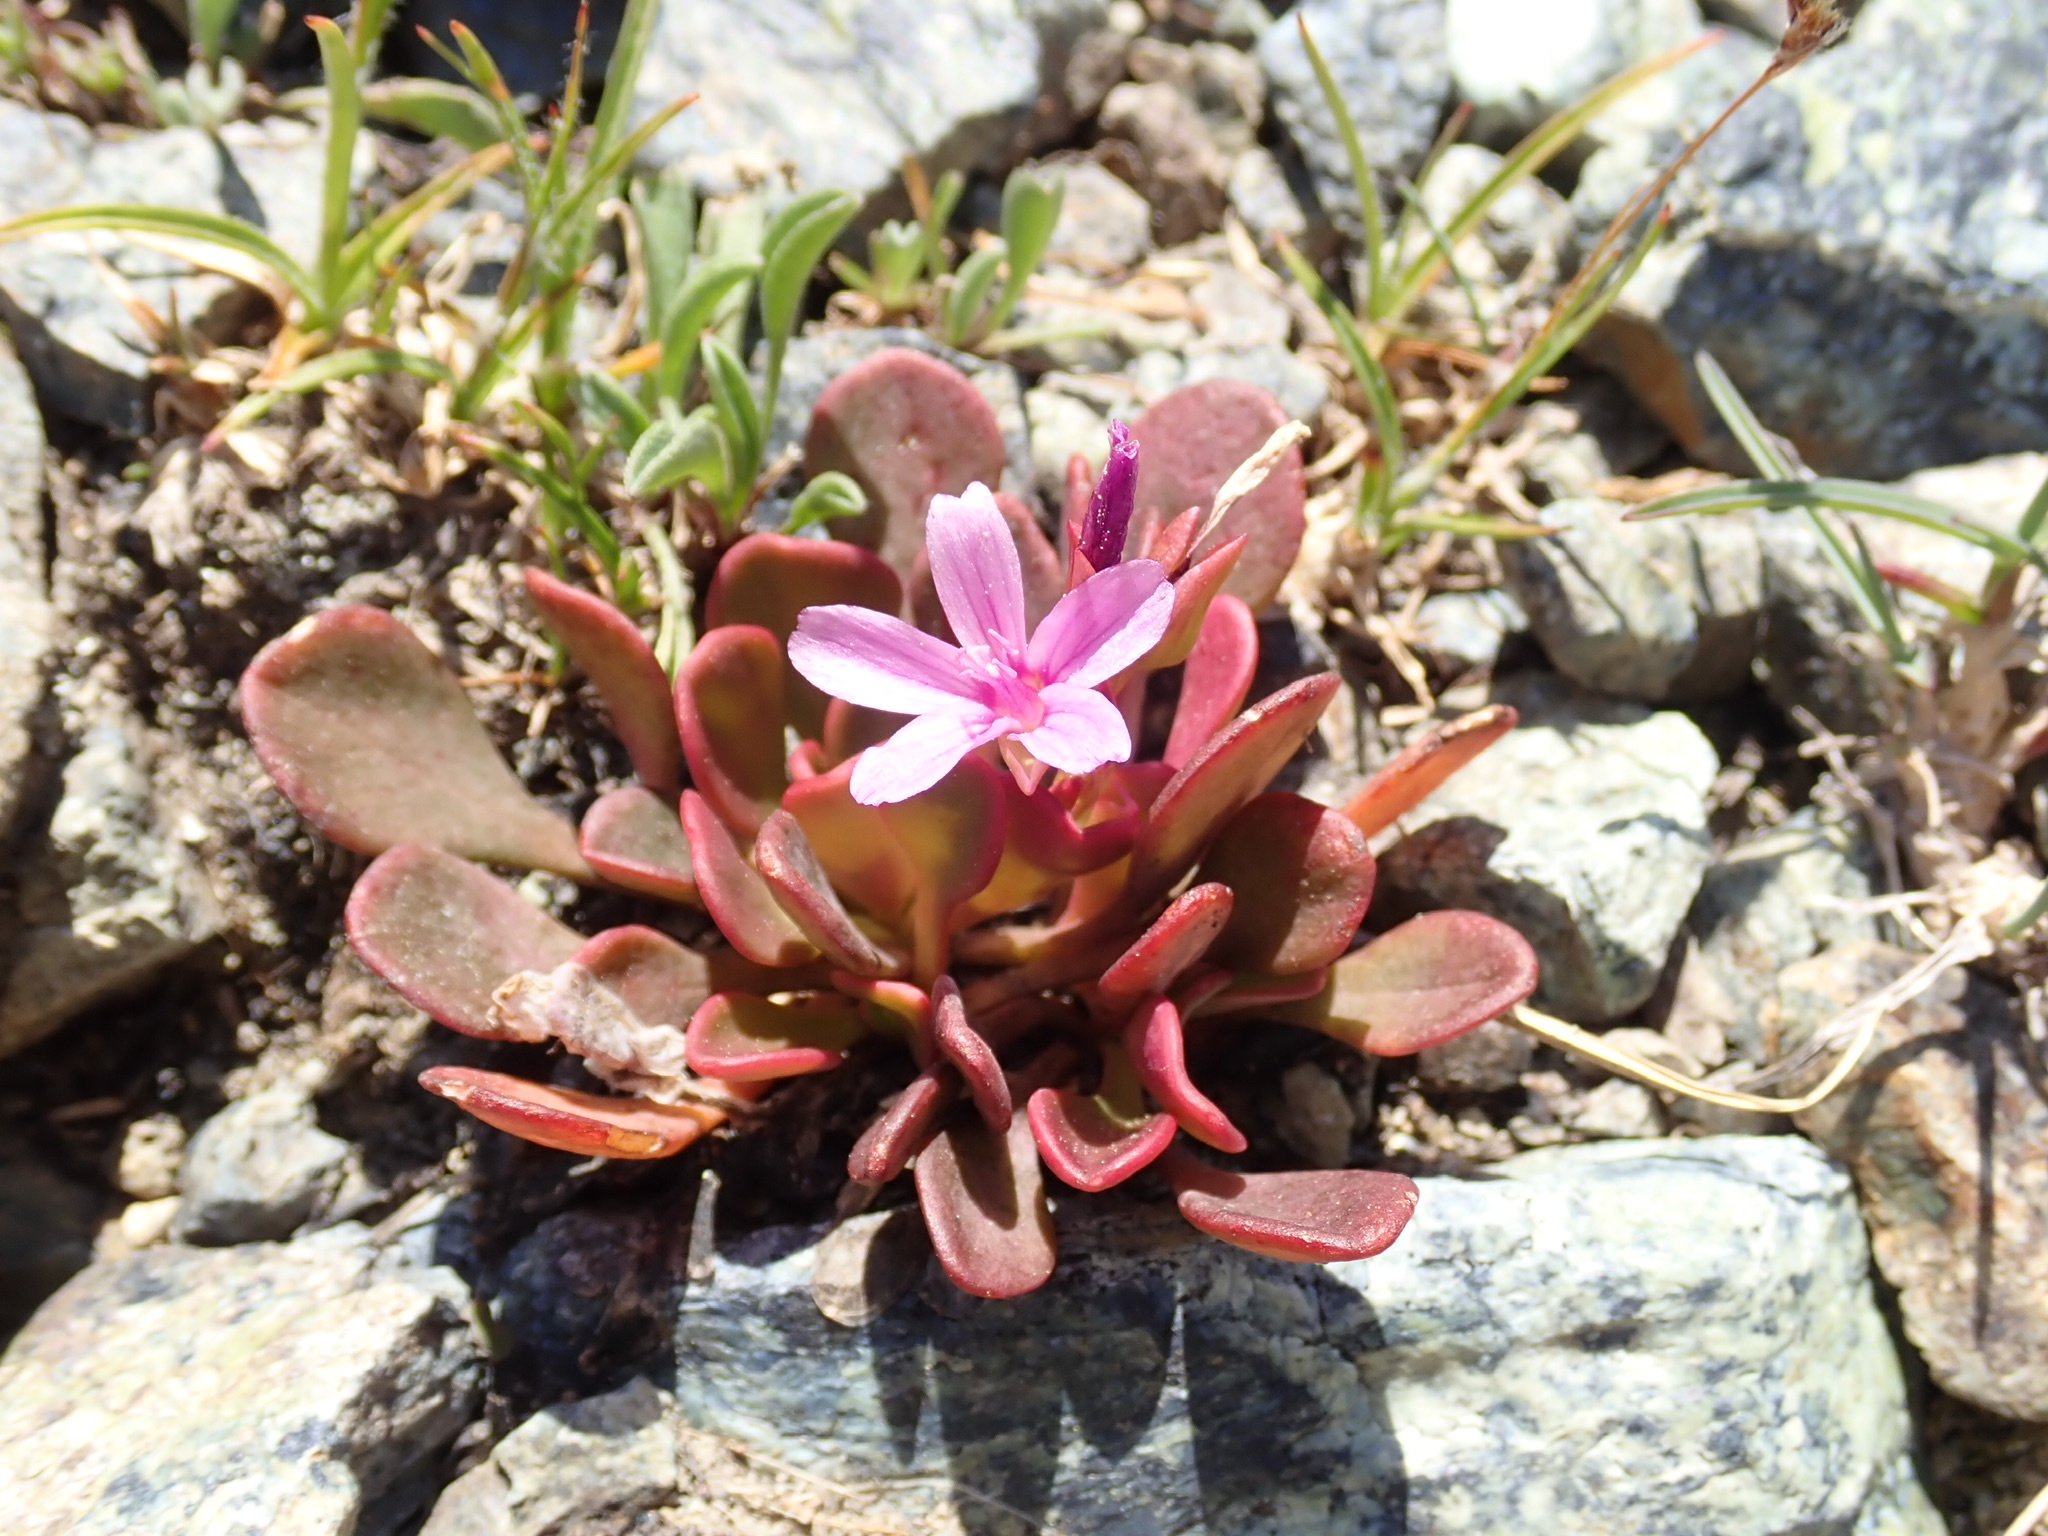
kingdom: Plantae
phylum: Tracheophyta
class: Magnoliopsida
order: Caryophyllales
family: Montiaceae
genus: Claytonia
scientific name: Claytonia megarhiza
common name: Alpine spring beauty
